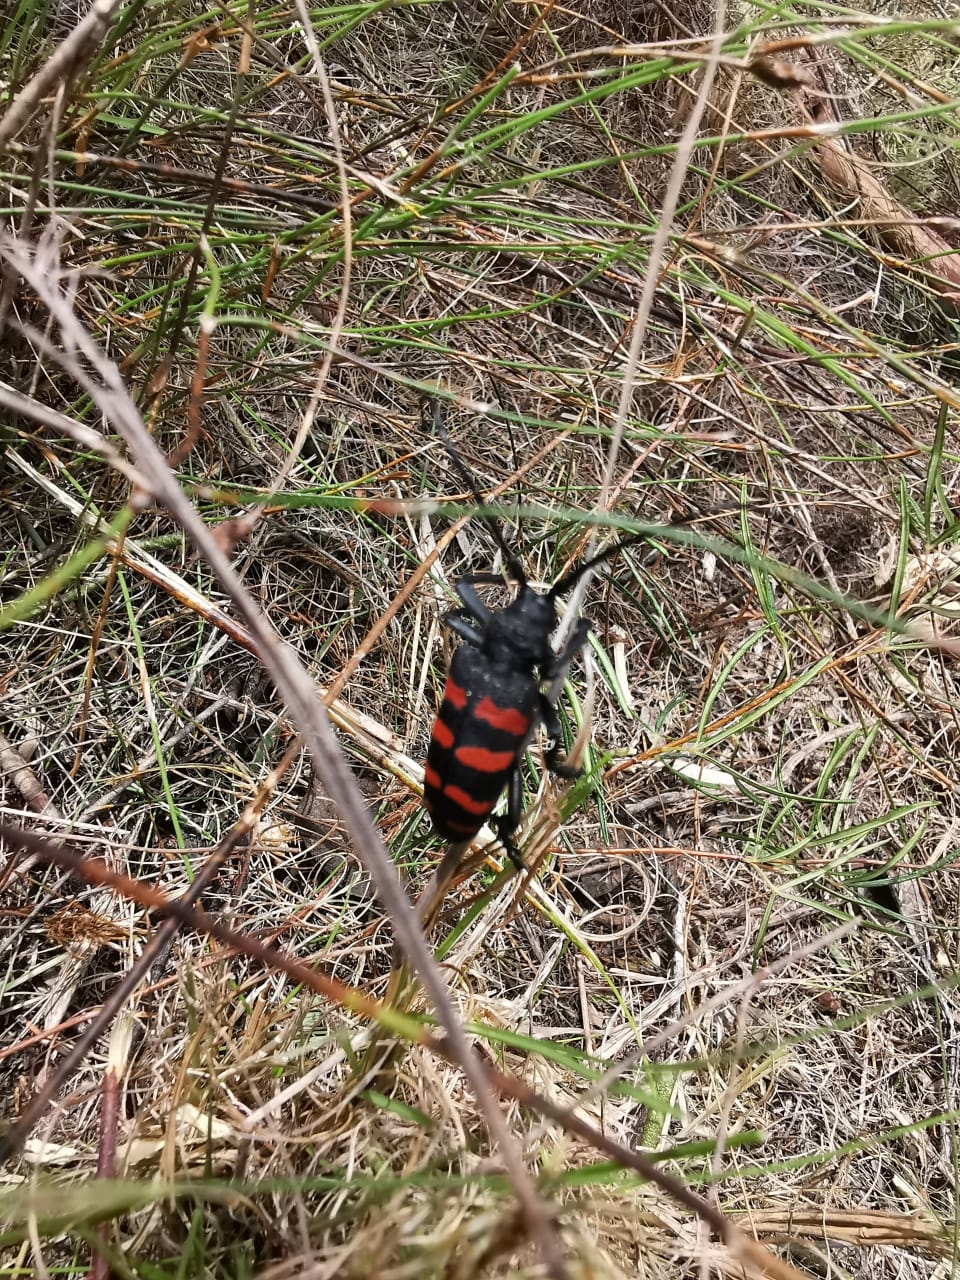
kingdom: Animalia
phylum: Arthropoda
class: Insecta
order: Coleoptera
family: Cerambycidae
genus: Ceroplesis
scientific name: Ceroplesis capensis
